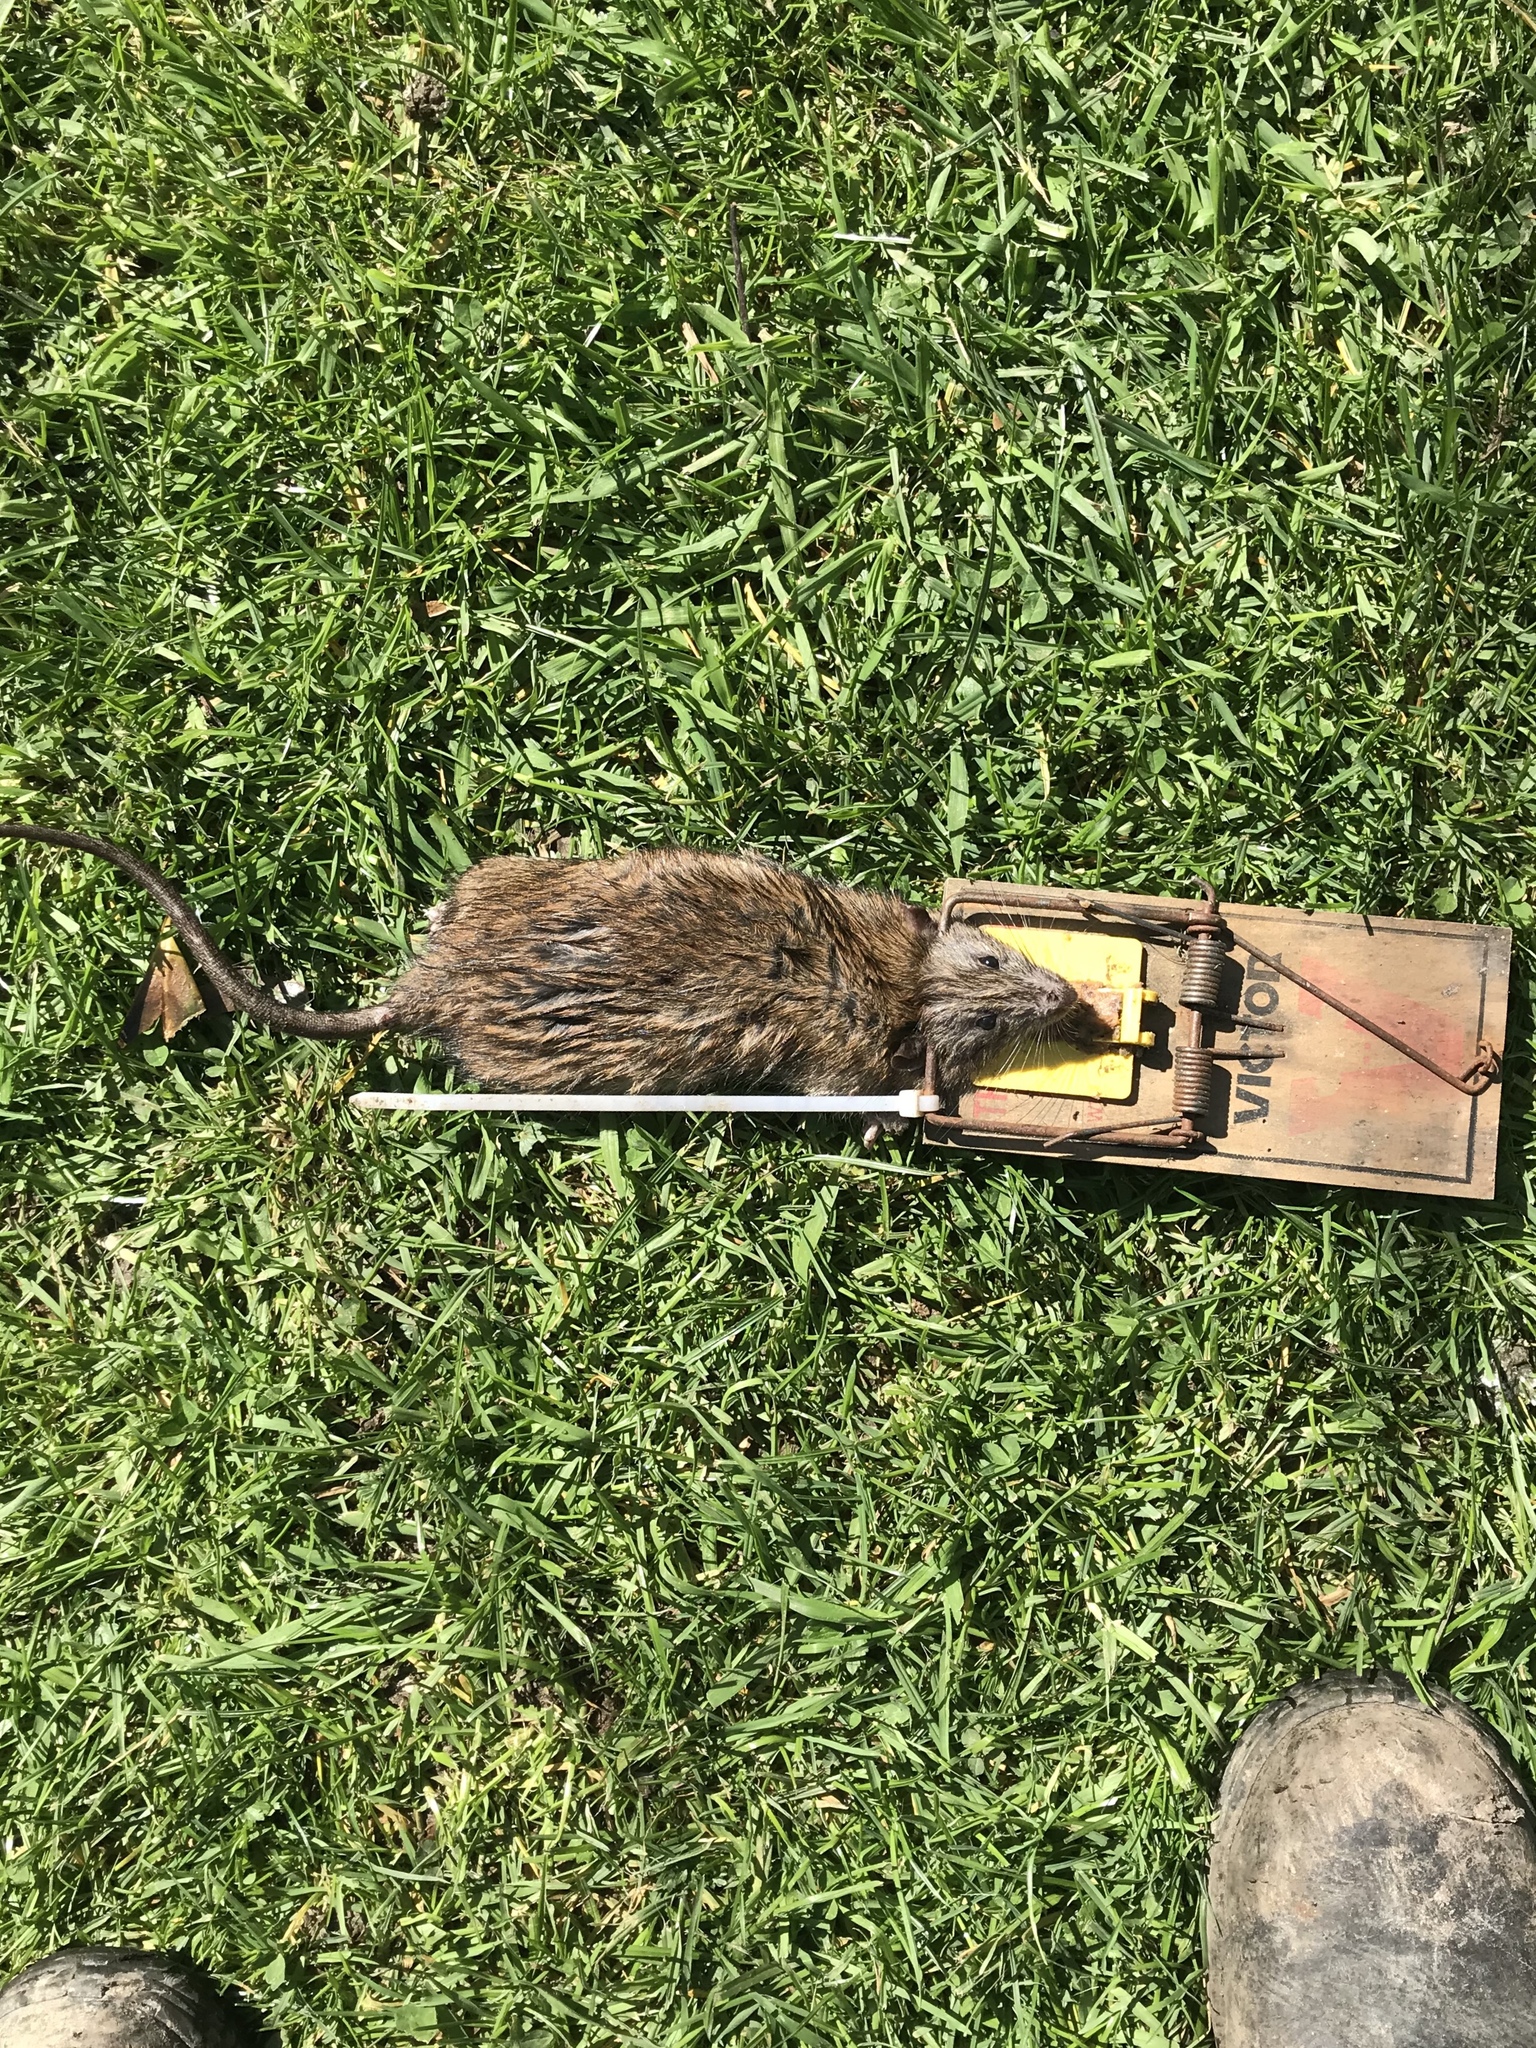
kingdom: Animalia
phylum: Chordata
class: Mammalia
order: Rodentia
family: Muridae
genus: Rattus
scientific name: Rattus norvegicus
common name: Brown rat
